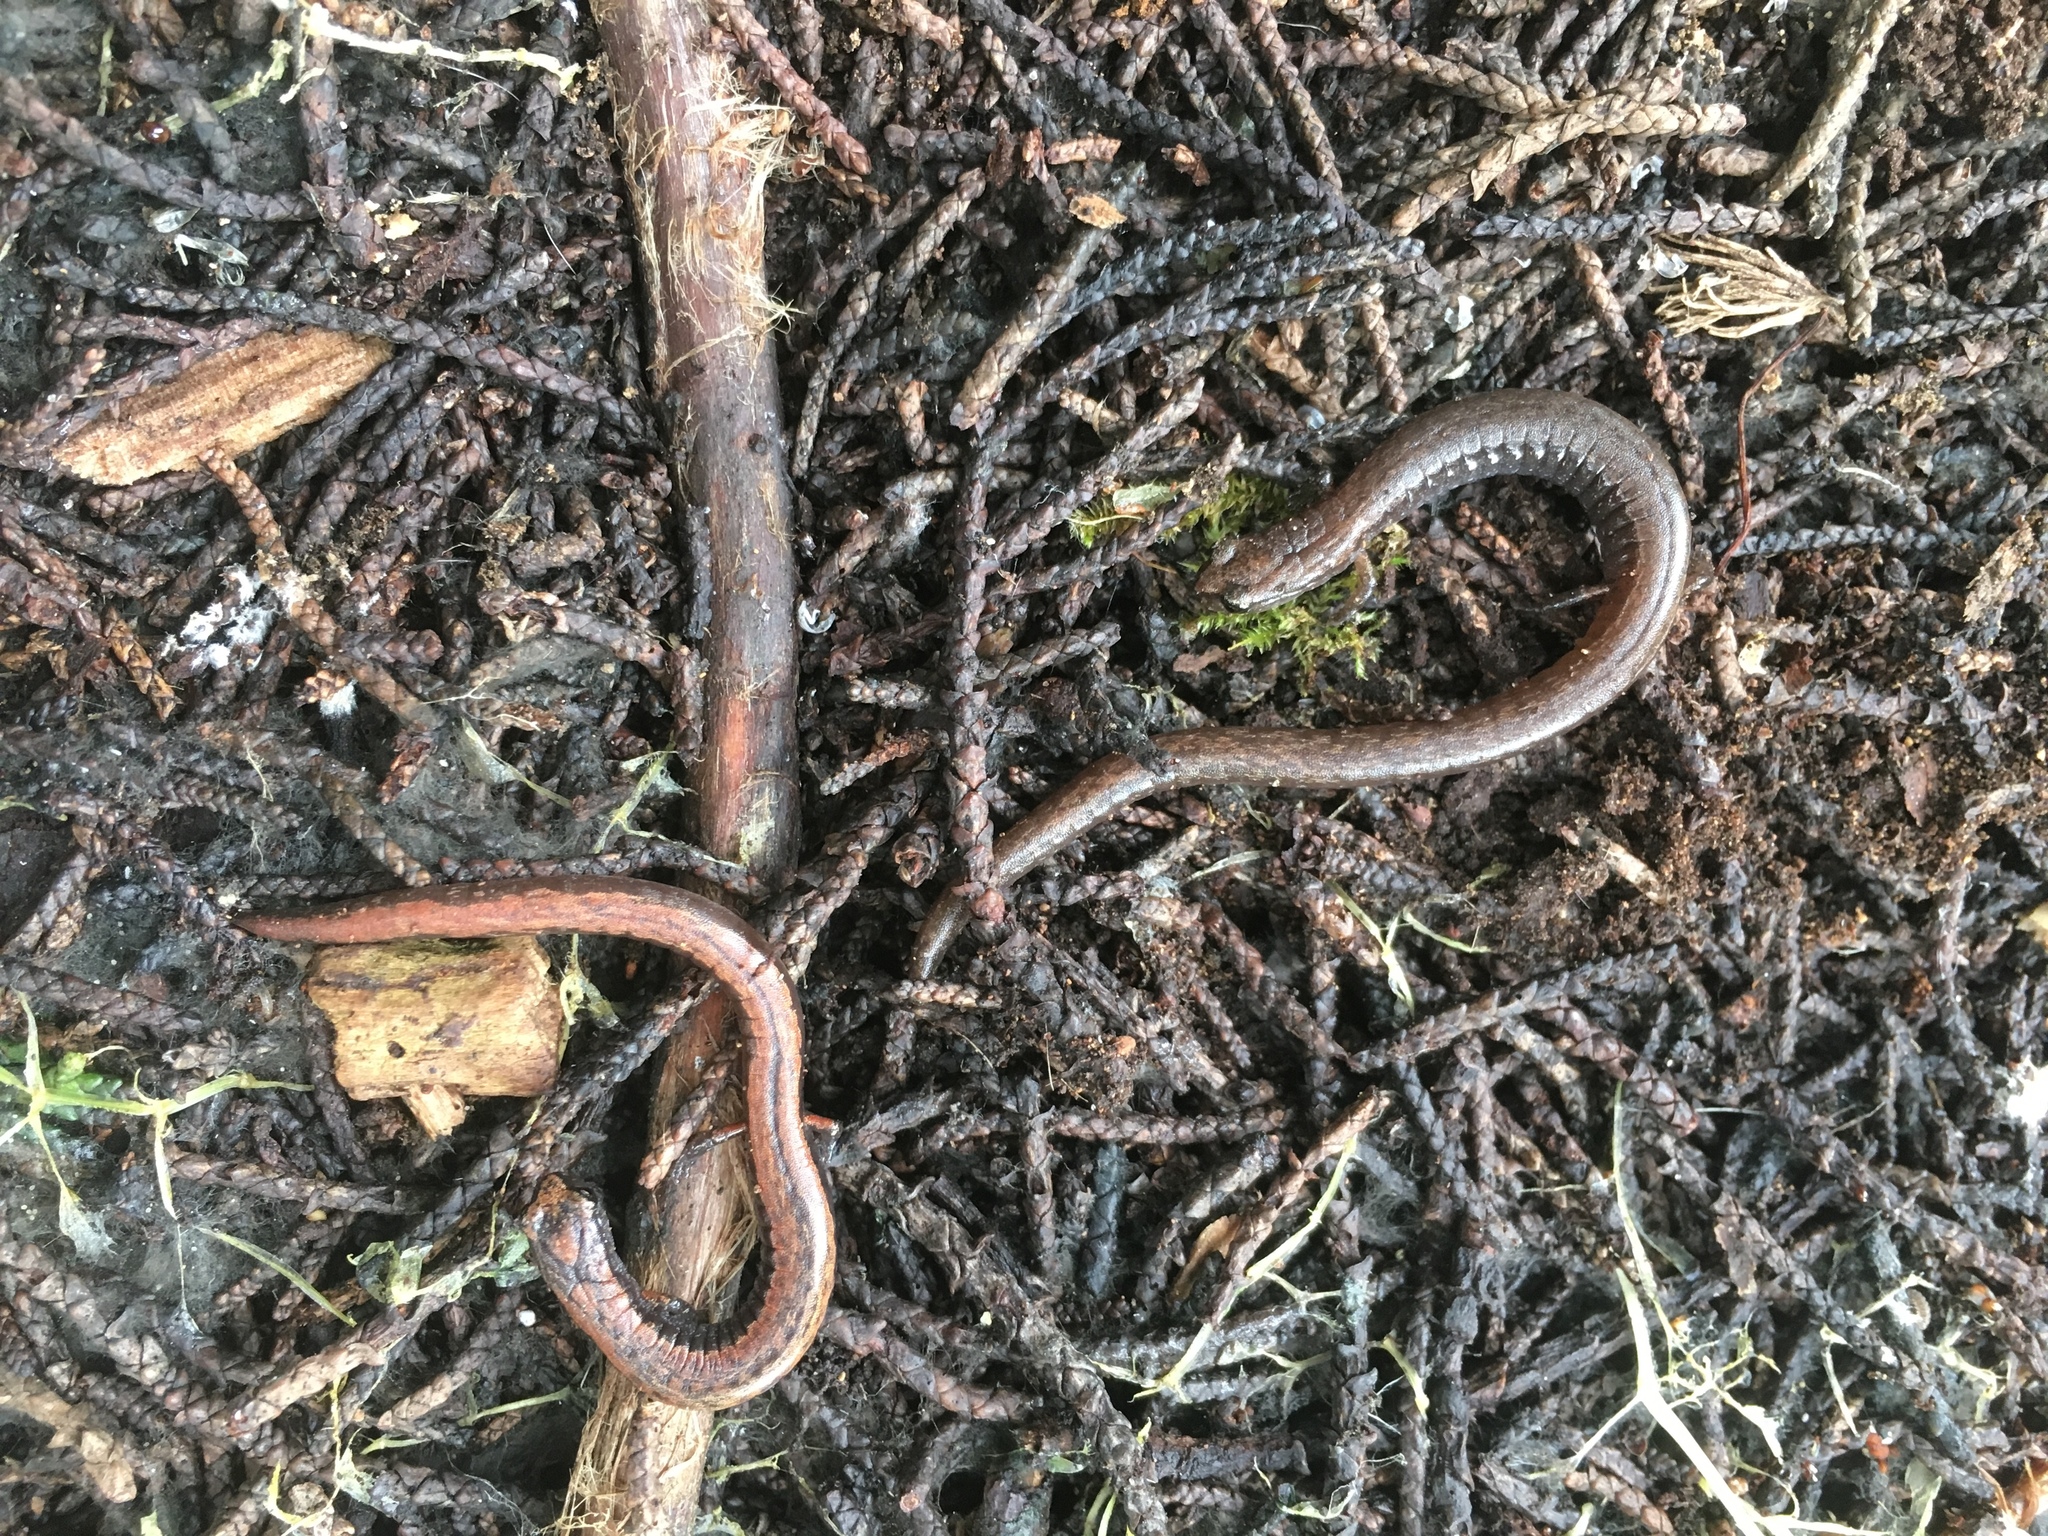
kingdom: Animalia
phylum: Chordata
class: Amphibia
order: Caudata
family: Plethodontidae
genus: Batrachoseps
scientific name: Batrachoseps attenuatus
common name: California slender salamander
